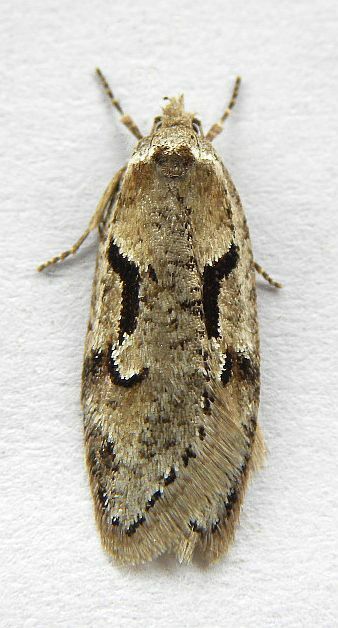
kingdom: Animalia
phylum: Arthropoda
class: Insecta
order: Lepidoptera
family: Depressariidae
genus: Semioscopis
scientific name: Semioscopis merriccella
